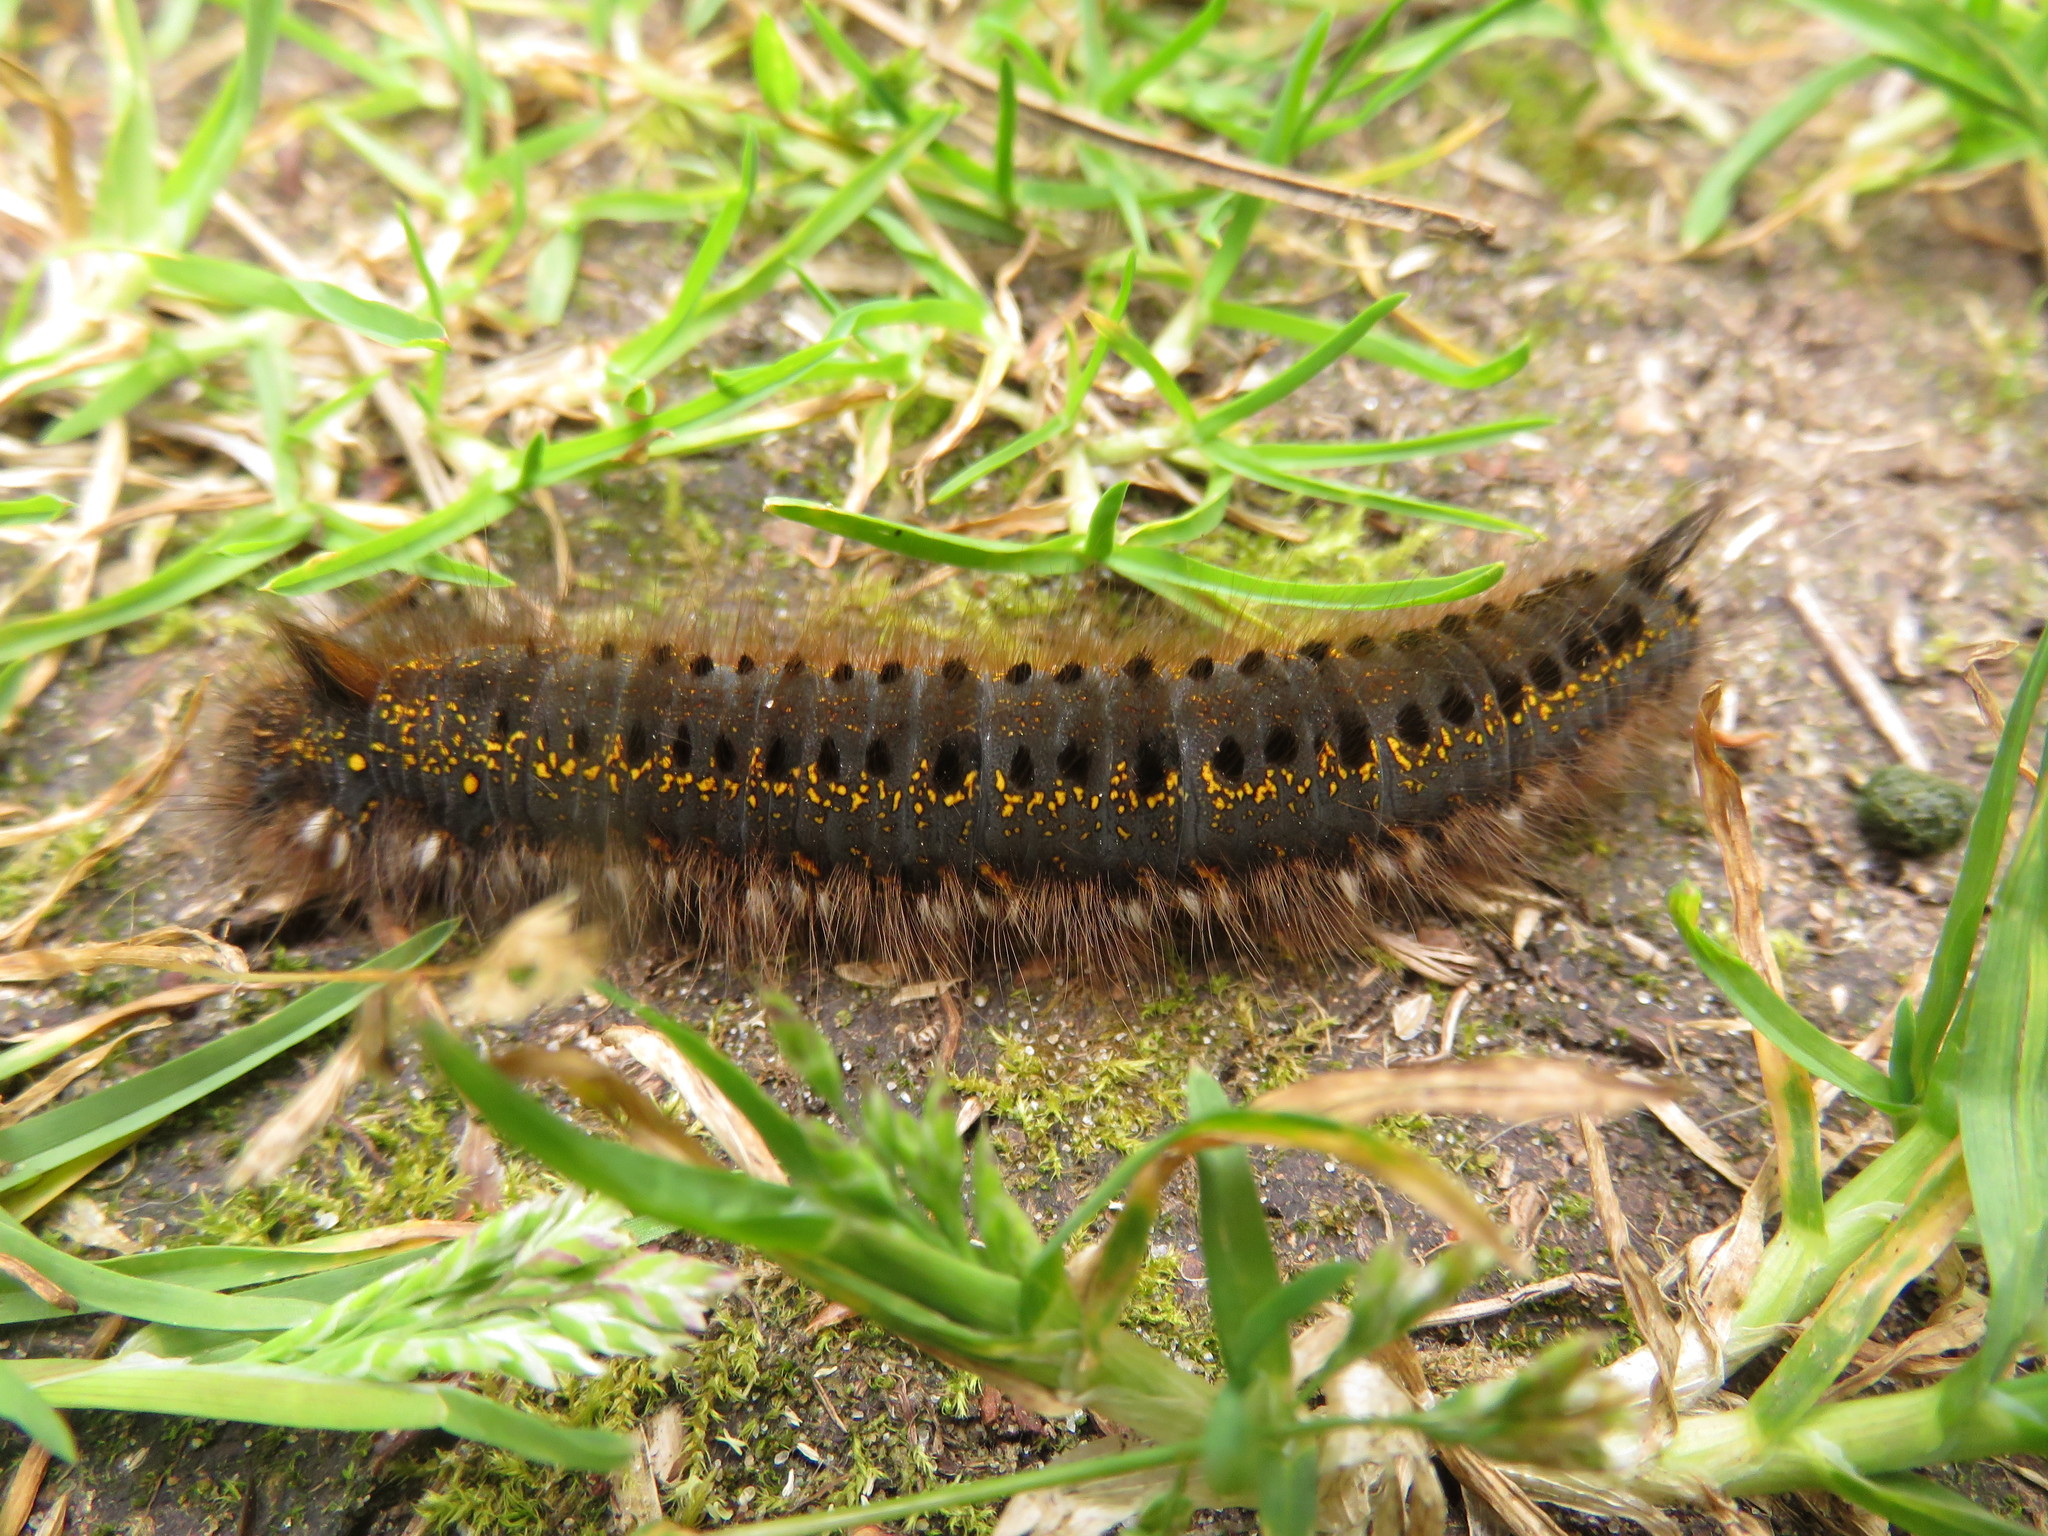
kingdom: Animalia
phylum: Arthropoda
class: Insecta
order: Lepidoptera
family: Lasiocampidae
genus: Euthrix
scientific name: Euthrix potatoria
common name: Drinker
